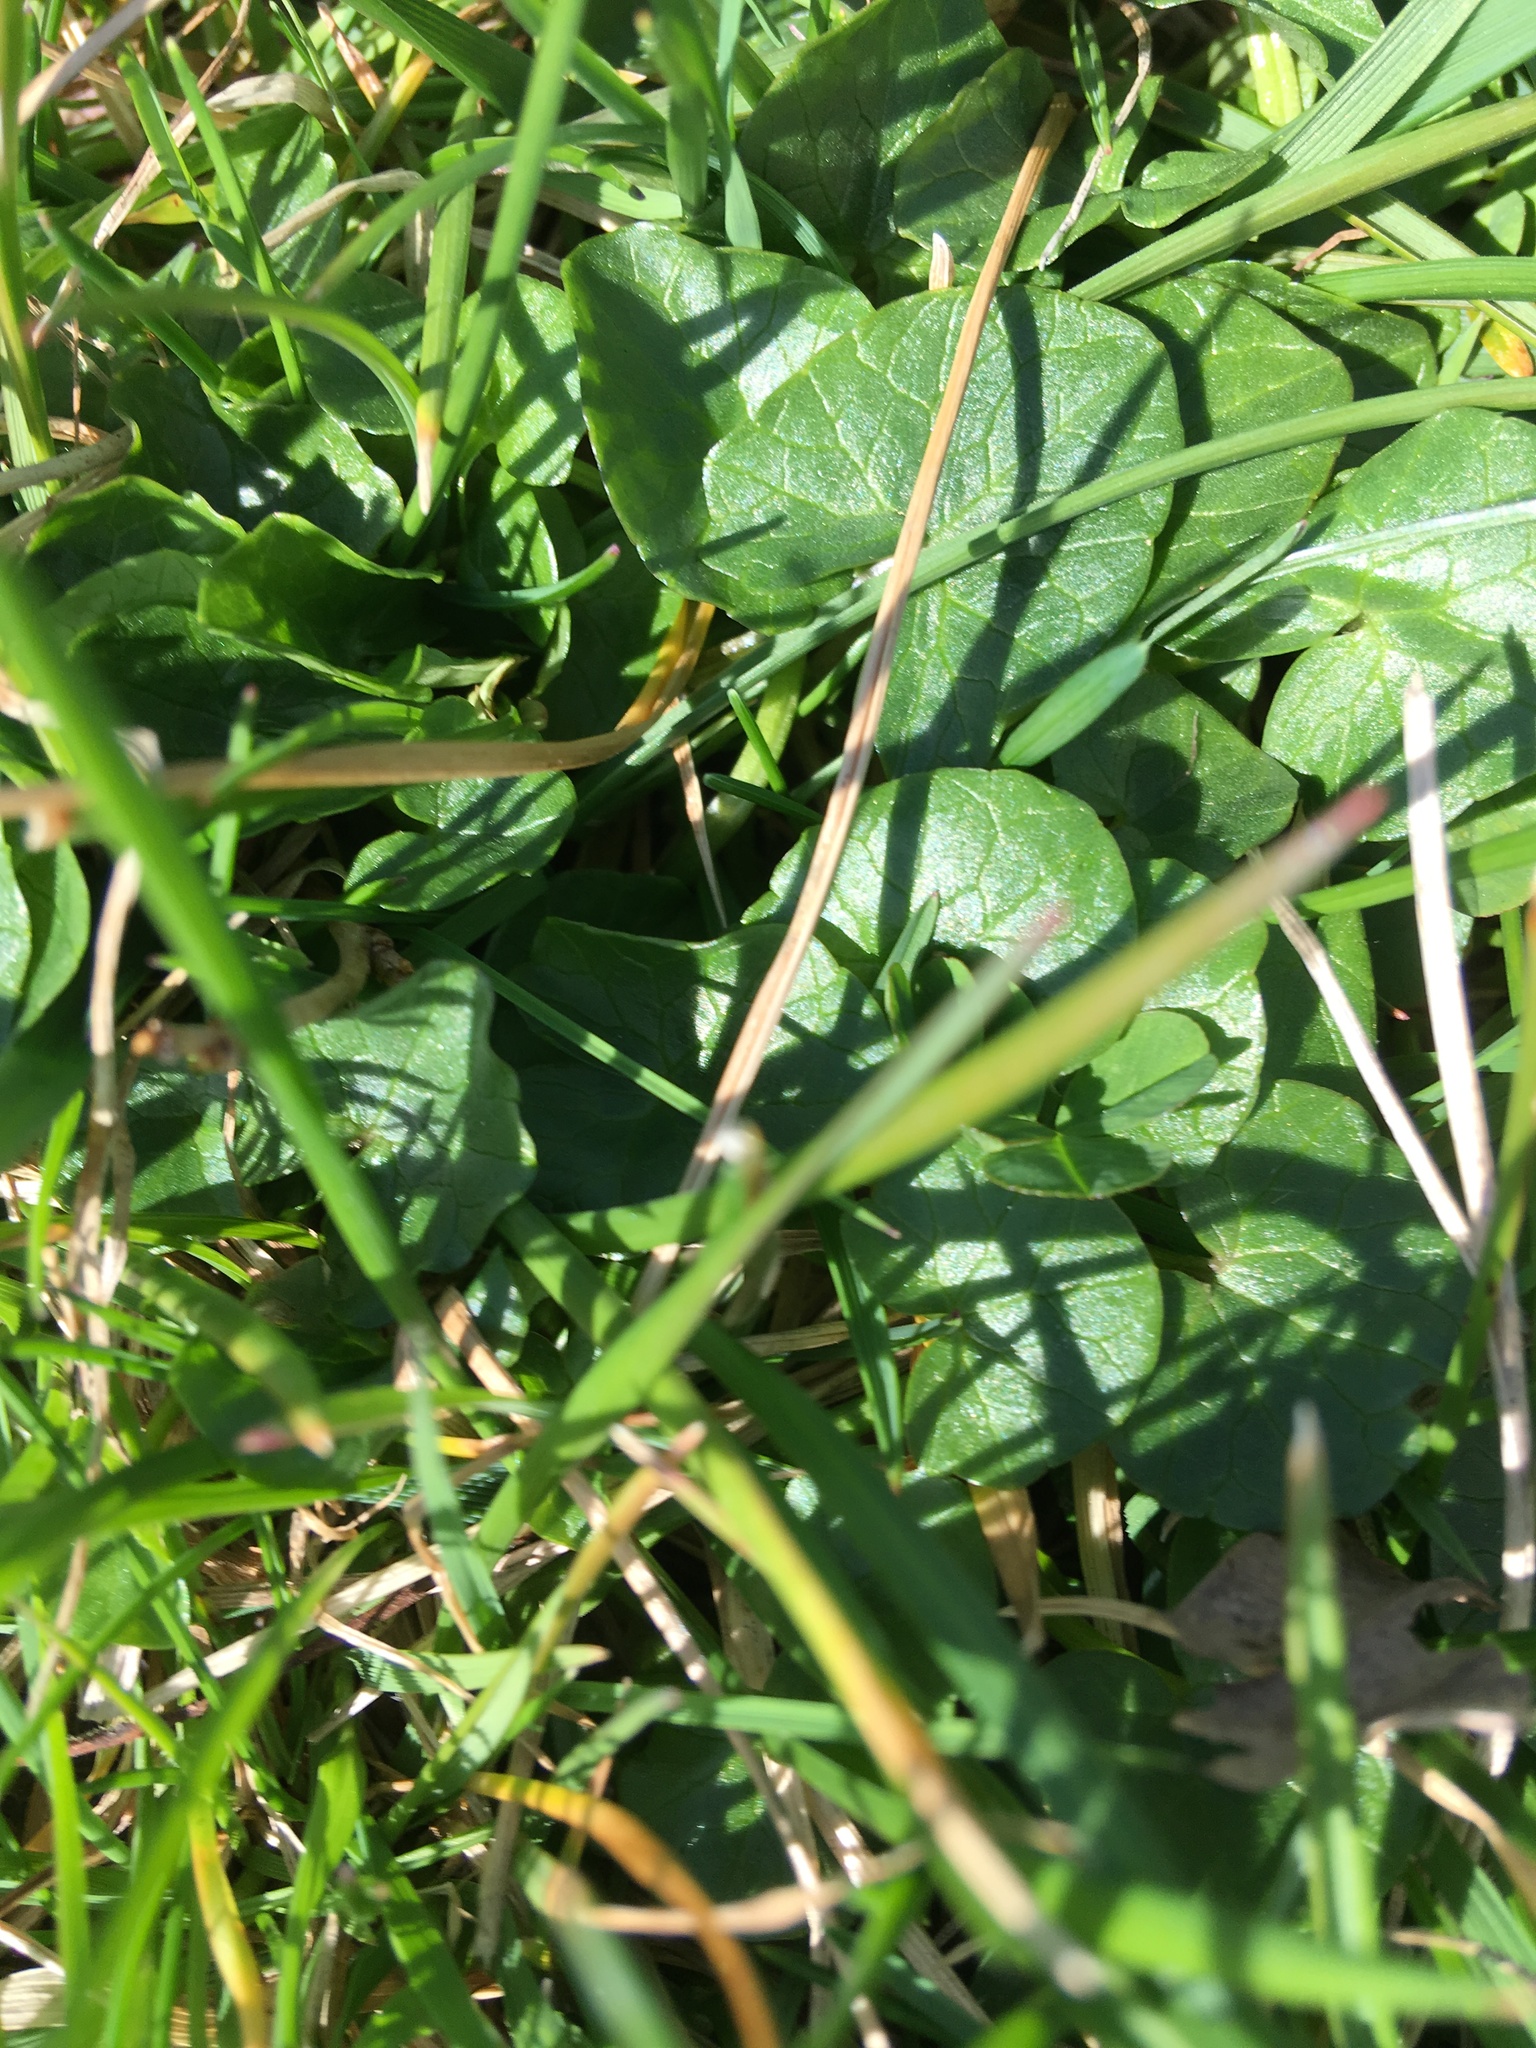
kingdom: Plantae
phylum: Tracheophyta
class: Magnoliopsida
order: Ranunculales
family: Ranunculaceae
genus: Ficaria
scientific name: Ficaria verna
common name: Lesser celandine
